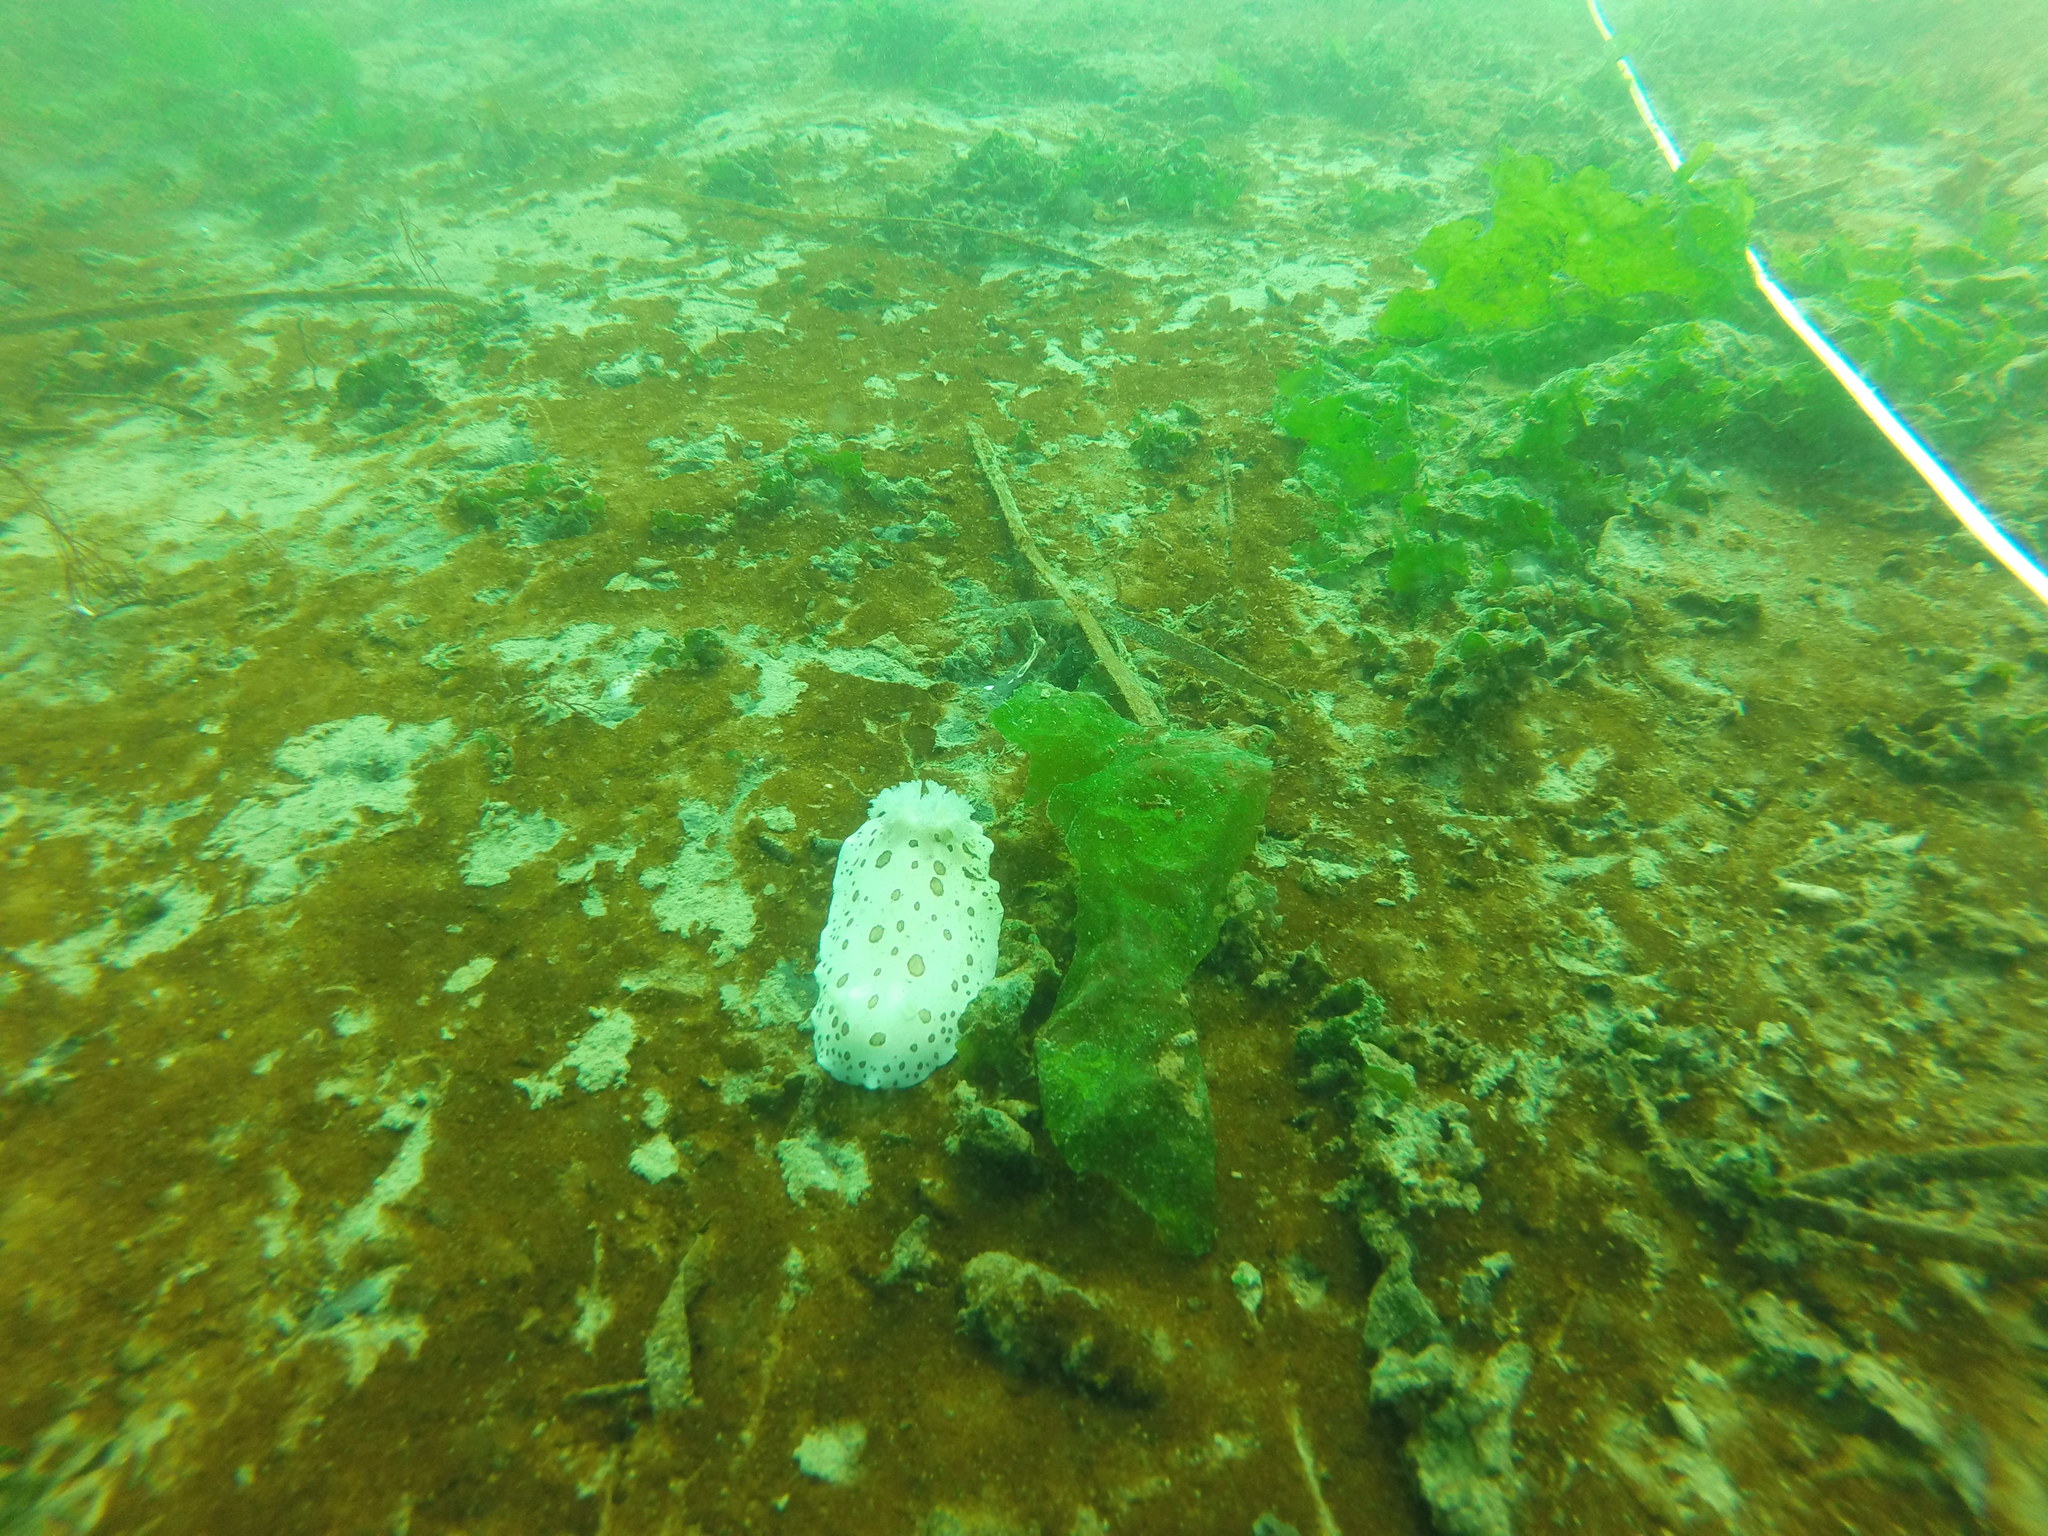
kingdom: Animalia
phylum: Mollusca
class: Gastropoda
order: Nudibranchia
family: Discodorididae
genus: Diaulula
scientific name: Diaulula odonoghuei
